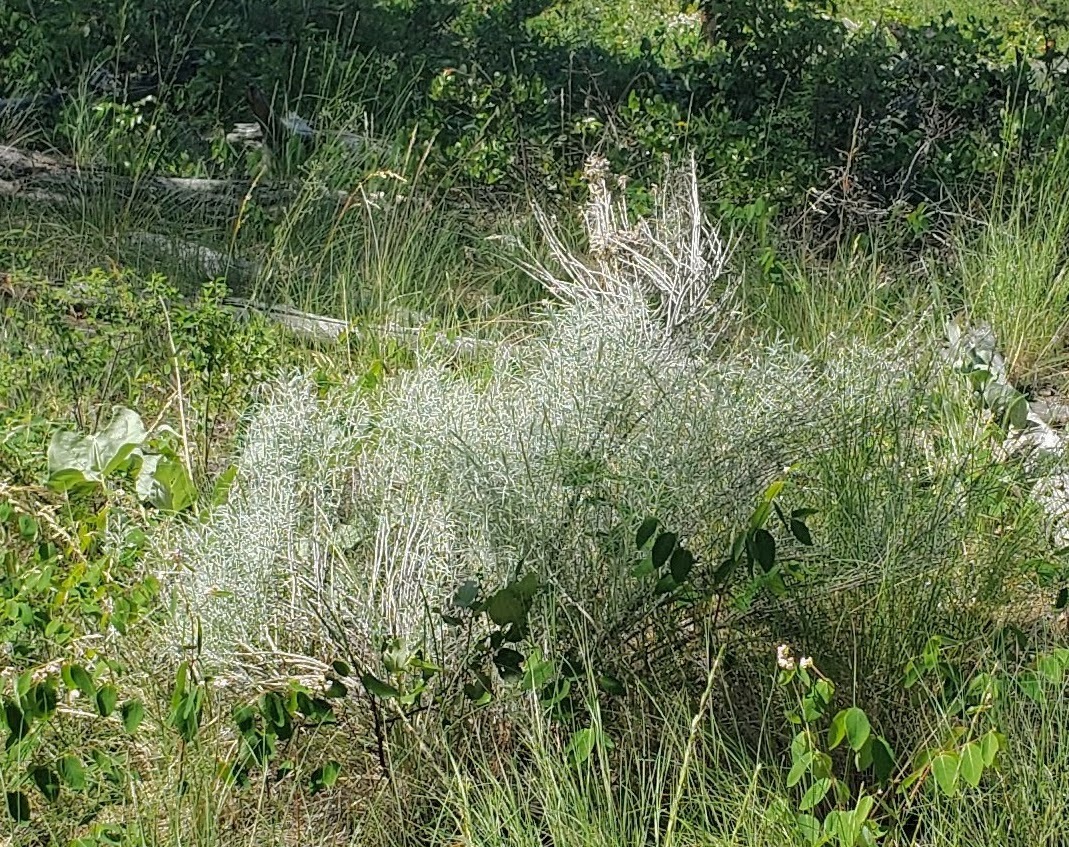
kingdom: Plantae
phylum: Tracheophyta
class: Magnoliopsida
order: Asterales
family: Asteraceae
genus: Ericameria
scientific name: Ericameria nauseosa
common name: Rubber rabbitbrush
